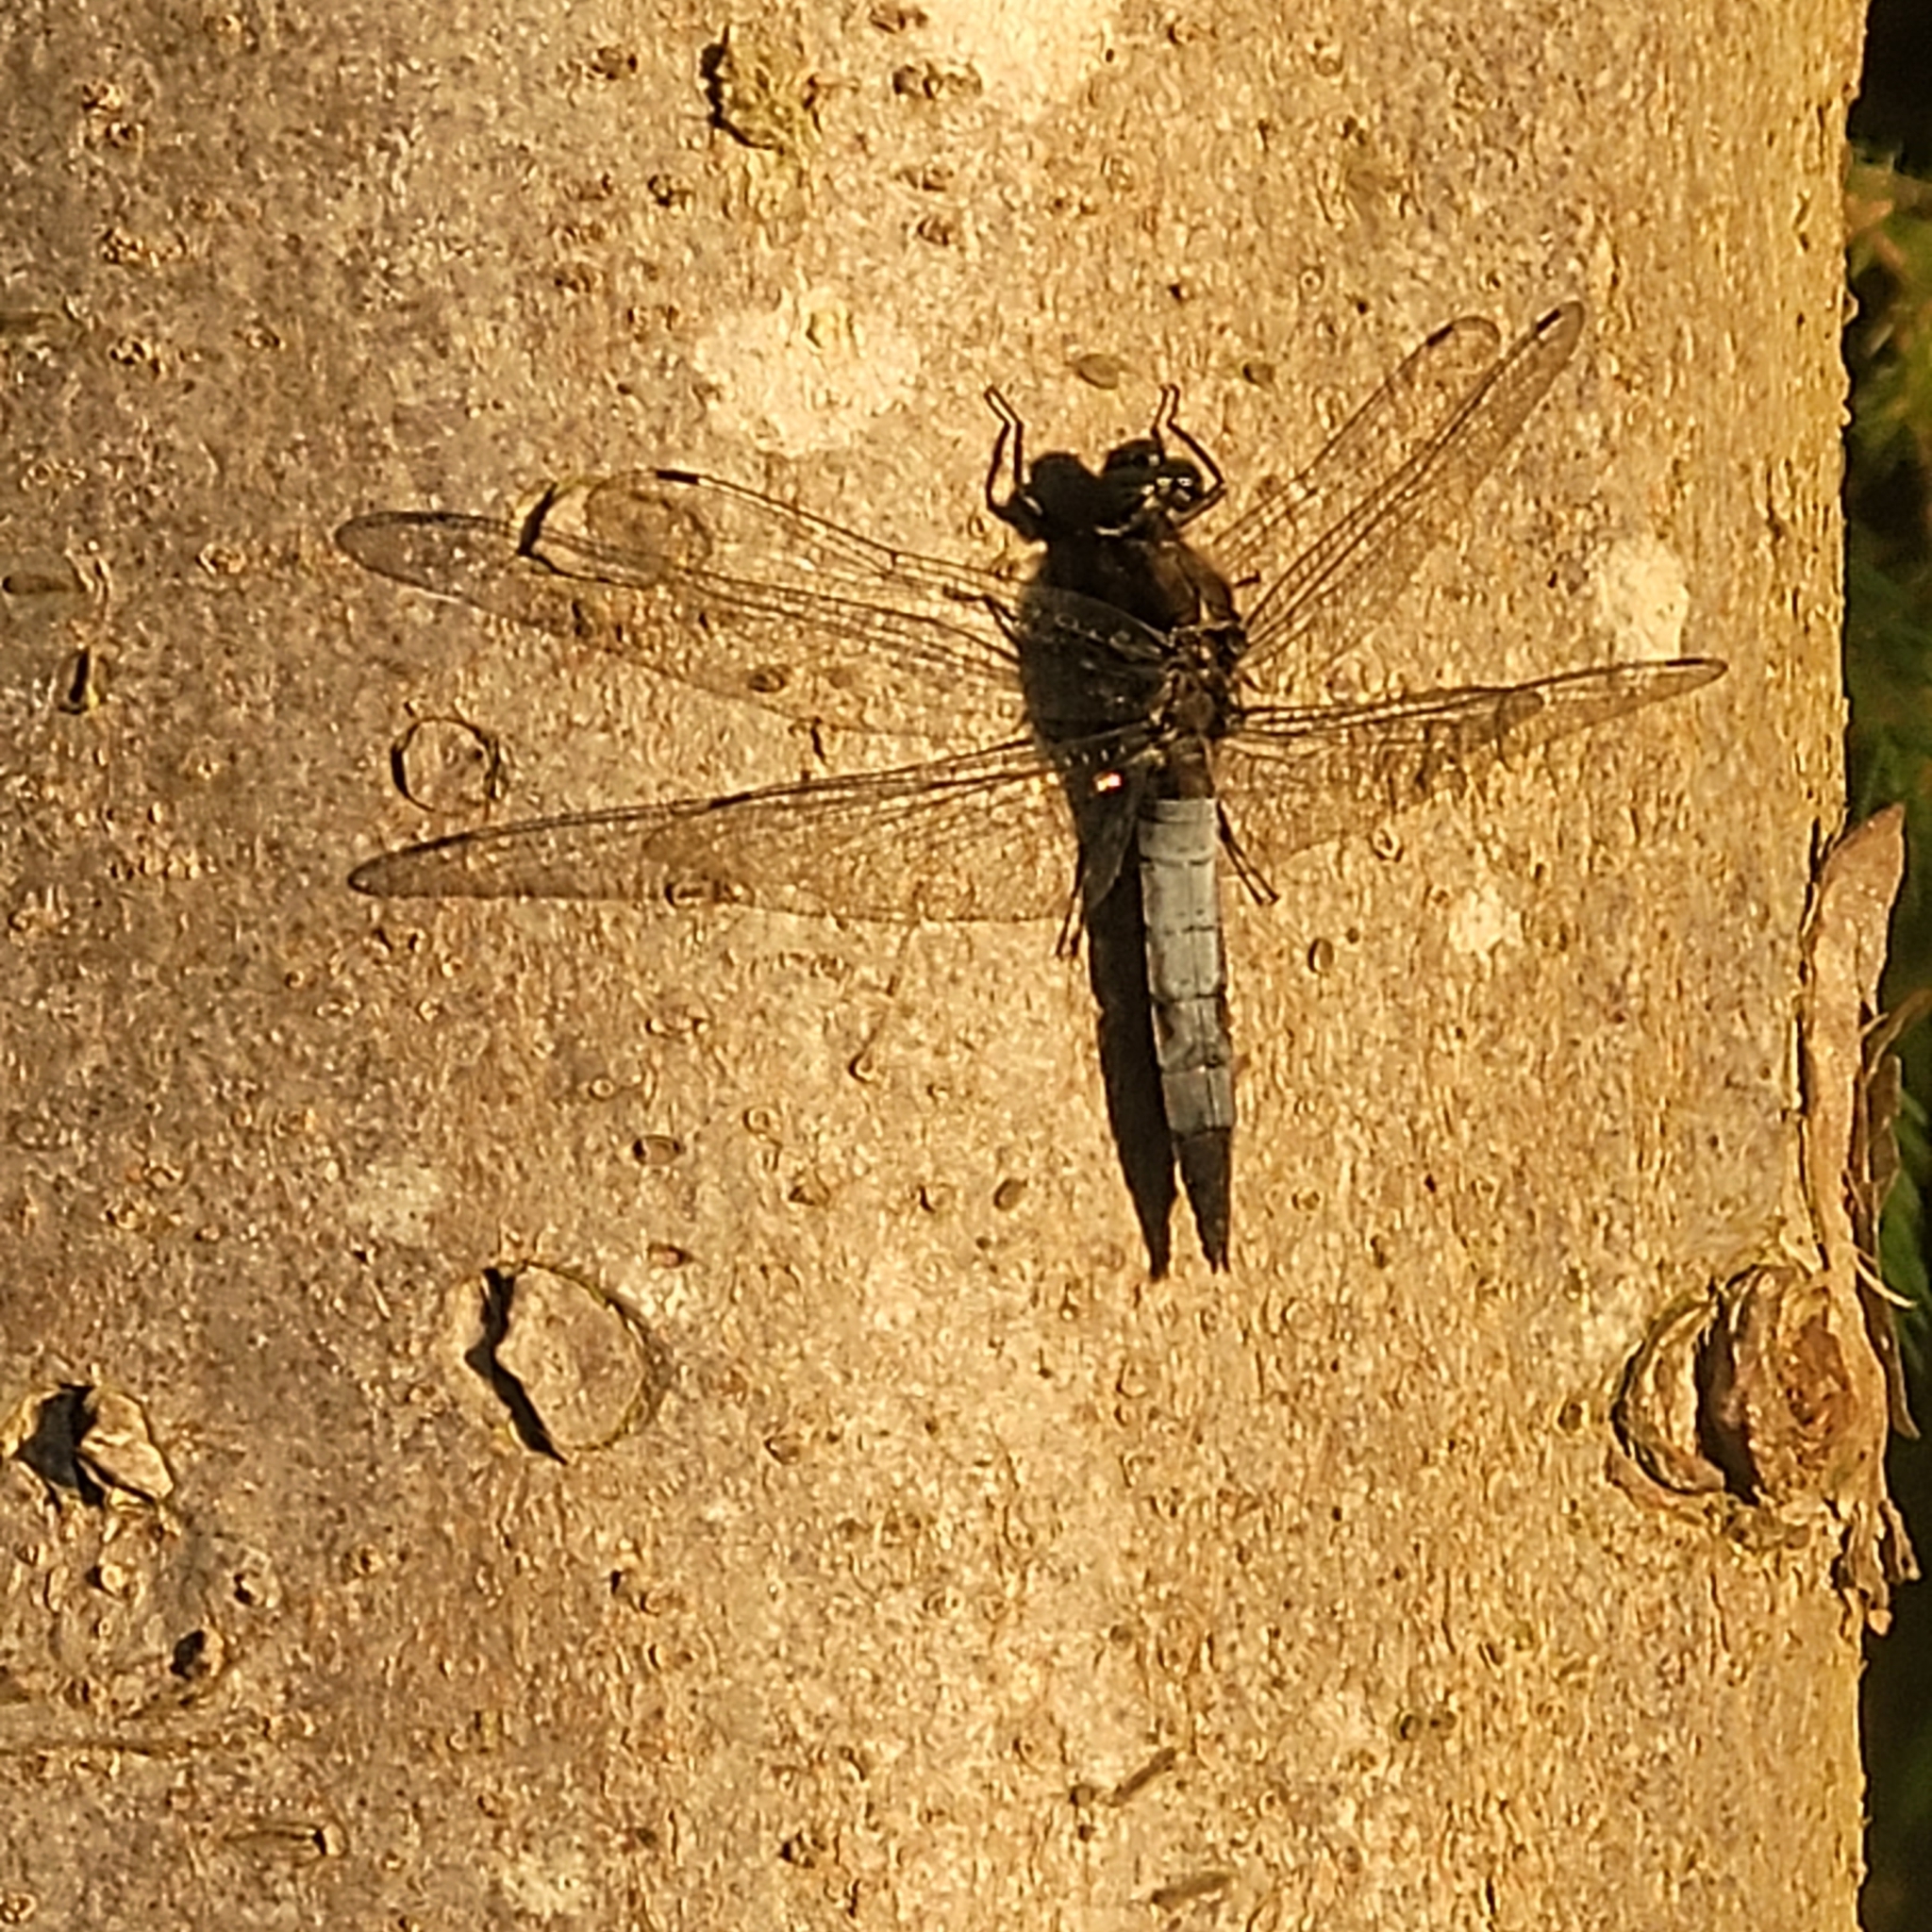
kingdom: Animalia
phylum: Arthropoda
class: Insecta
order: Odonata
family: Libellulidae
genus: Orthetrum
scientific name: Orthetrum cancellatum
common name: Black-tailed skimmer
